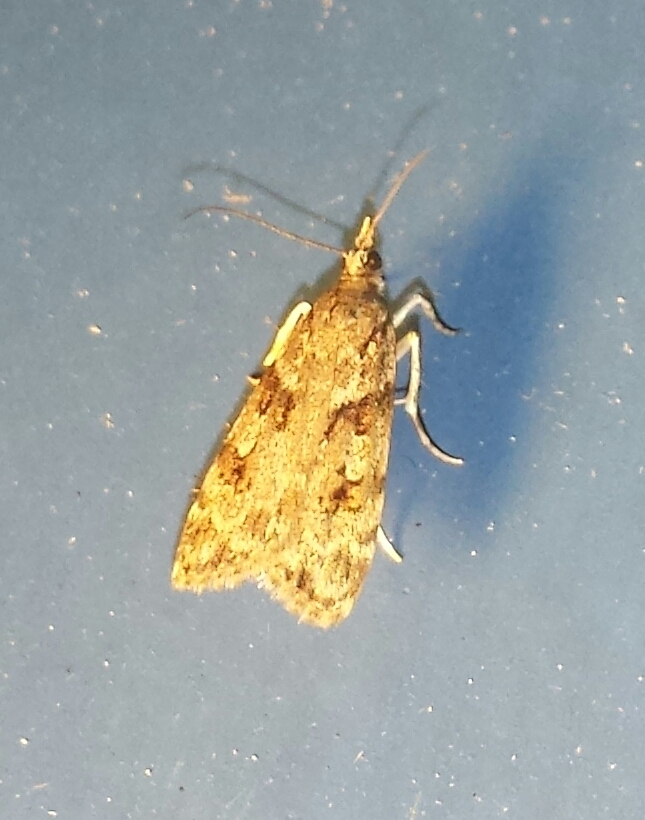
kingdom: Animalia
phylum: Arthropoda
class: Insecta
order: Lepidoptera
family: Crambidae
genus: Scoparia
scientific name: Scoparia biplagialis
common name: Double-striped scoparia moth
